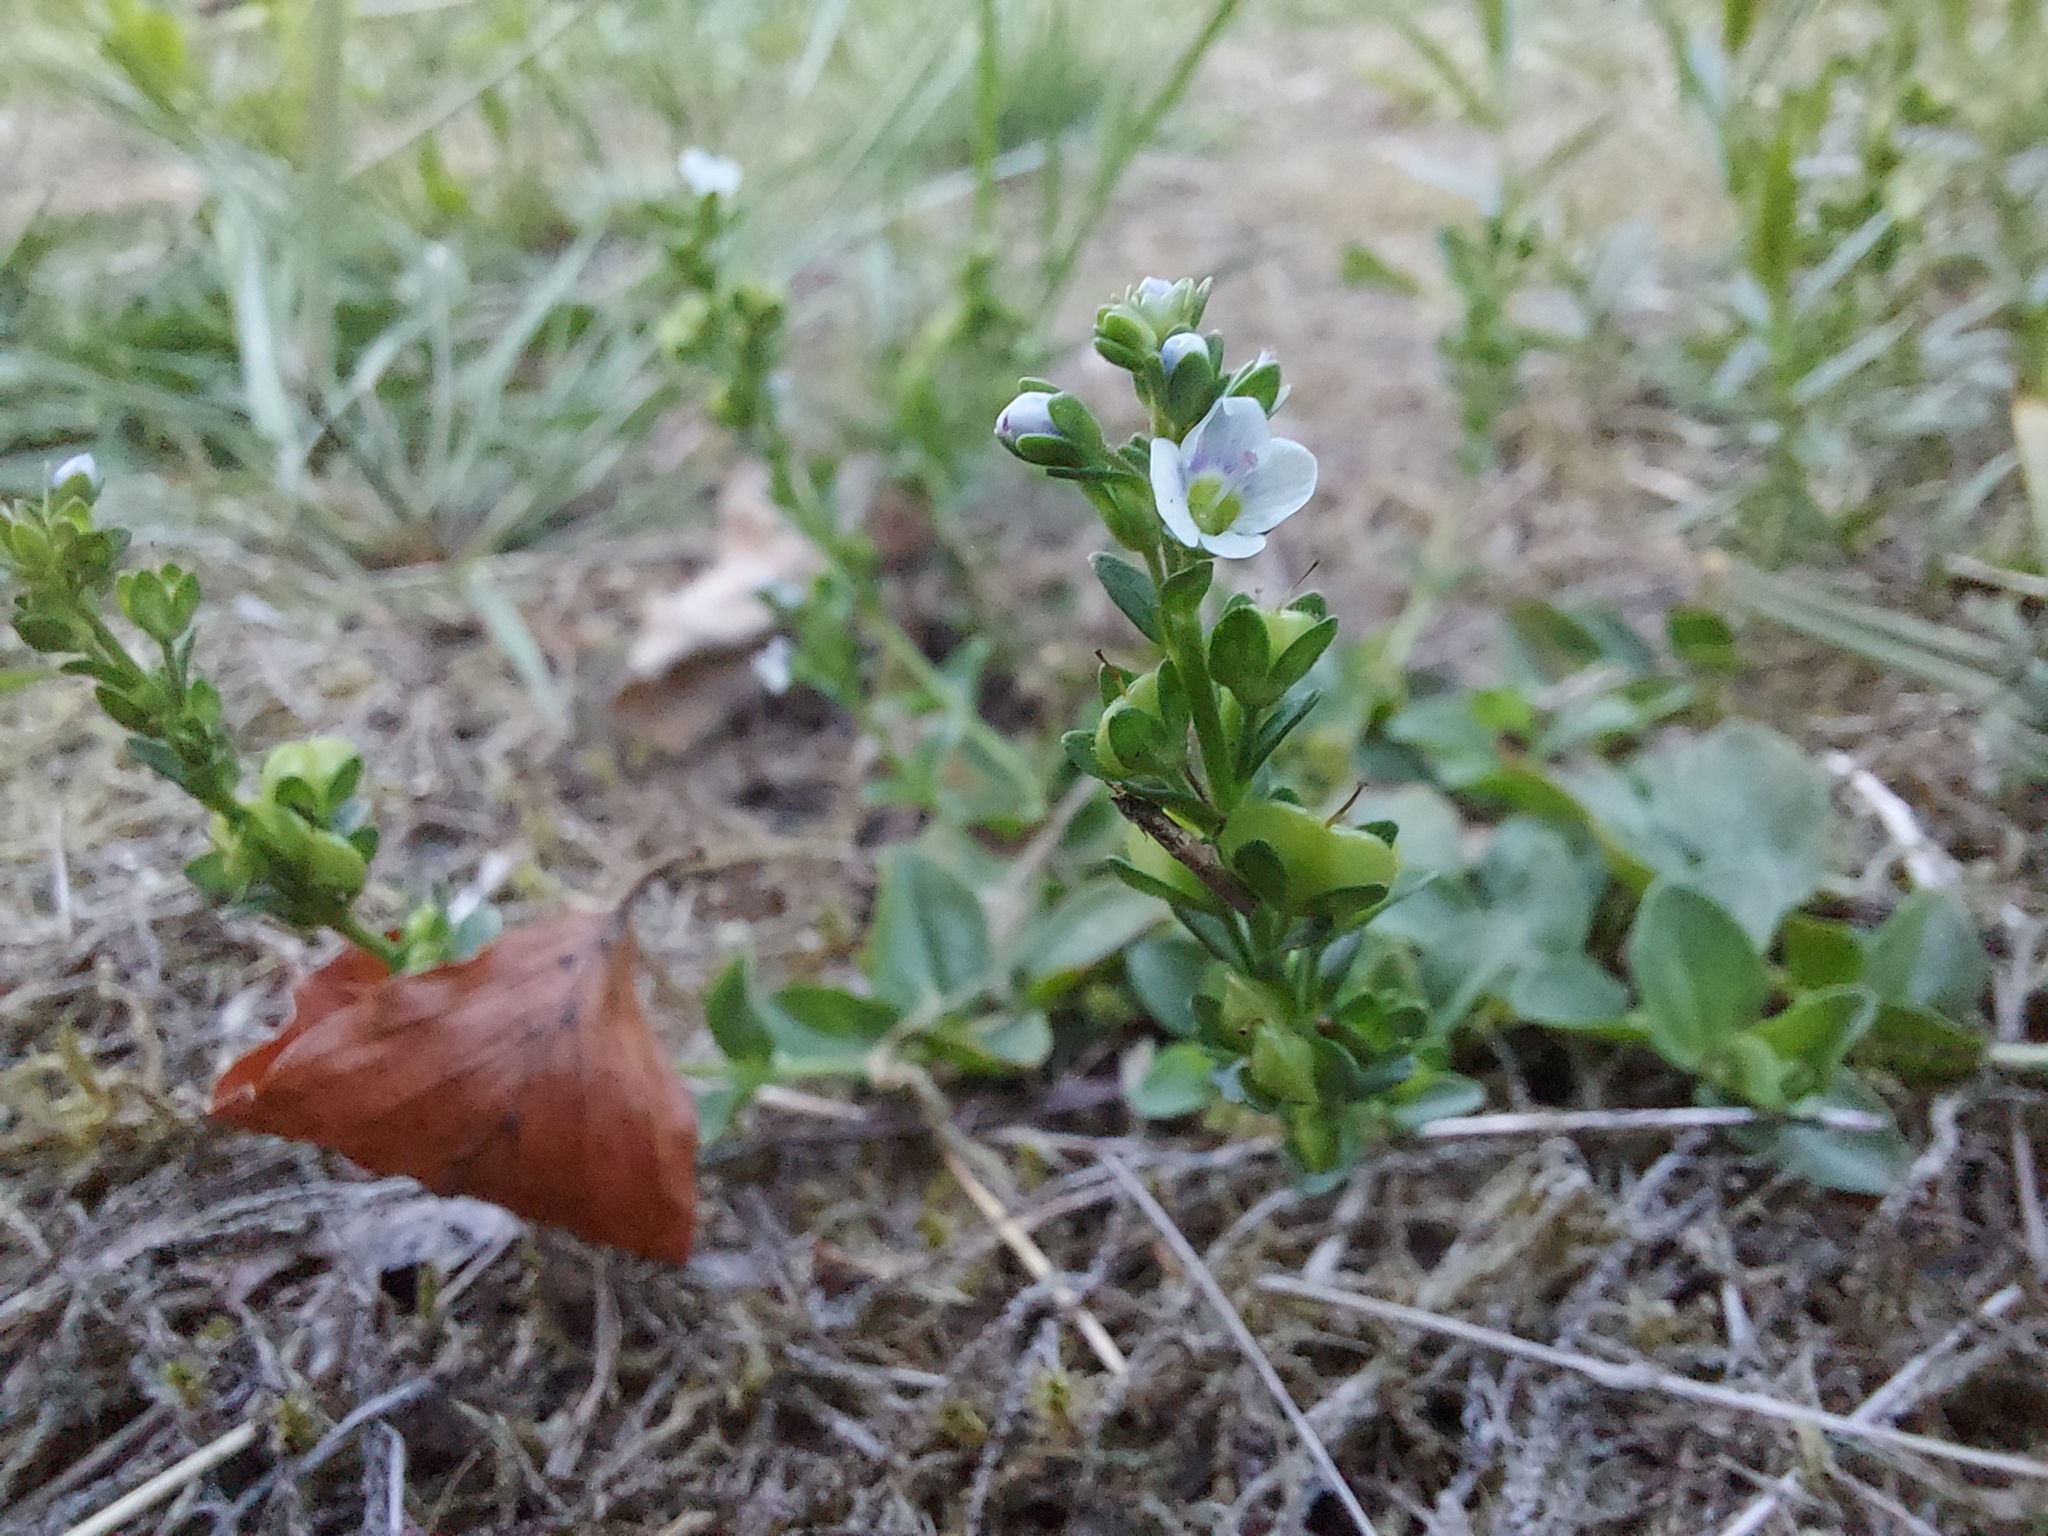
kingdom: Plantae
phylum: Tracheophyta
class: Magnoliopsida
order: Lamiales
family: Plantaginaceae
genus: Veronica
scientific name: Veronica serpyllifolia
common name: Thyme-leaved speedwell
